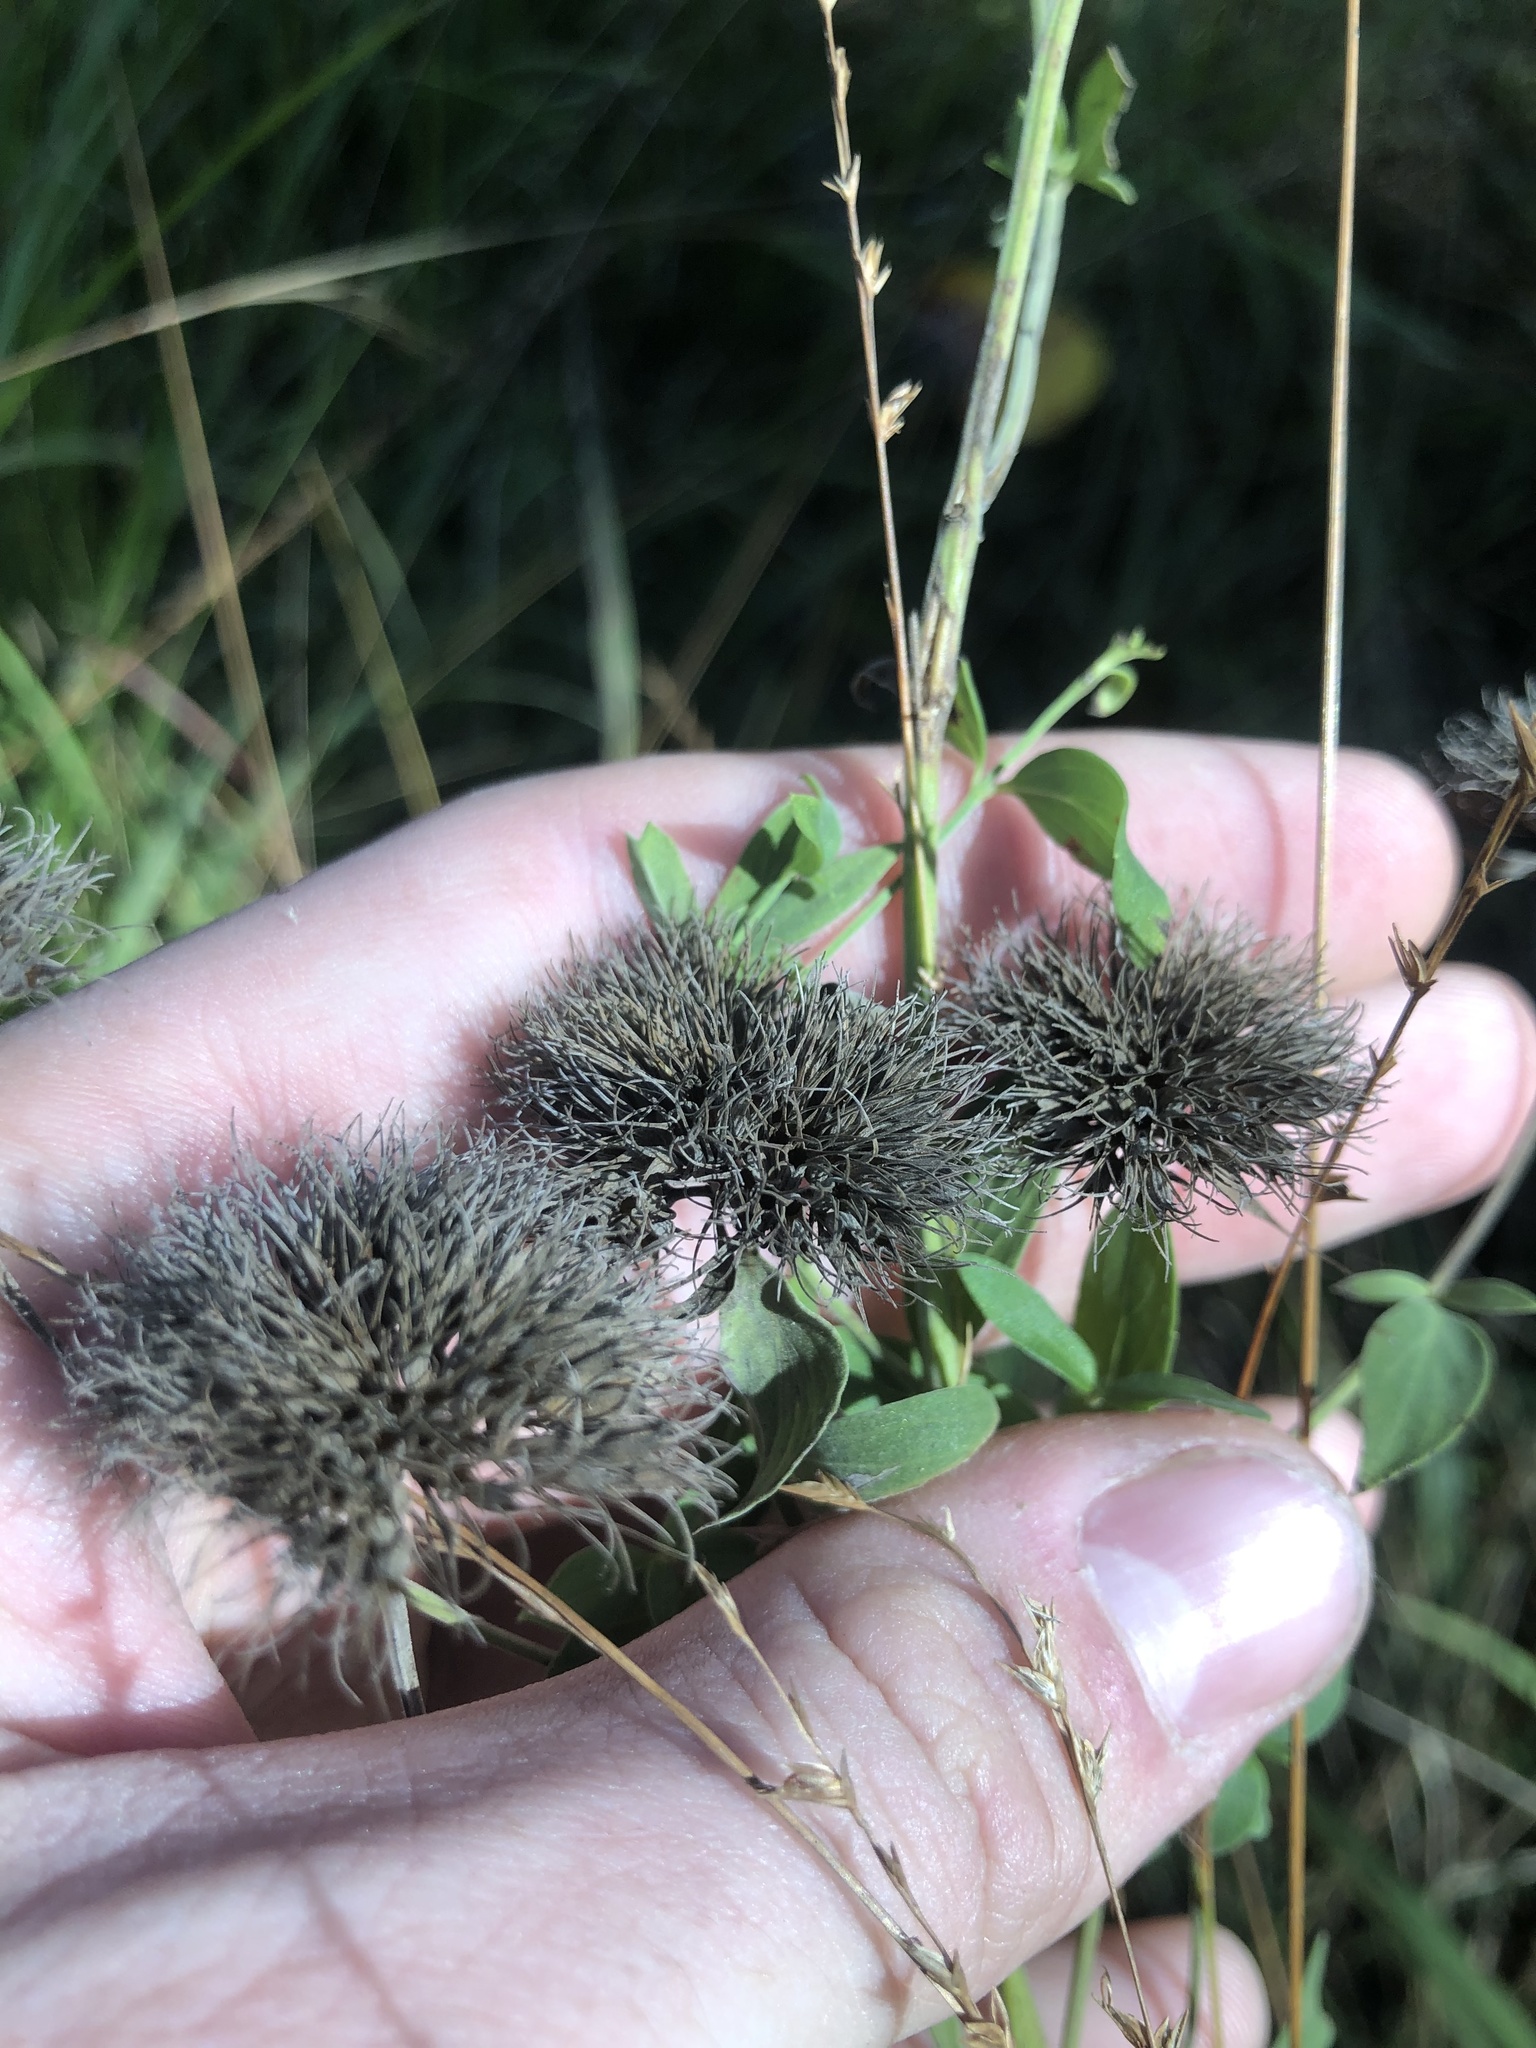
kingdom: Plantae
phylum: Tracheophyta
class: Magnoliopsida
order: Lamiales
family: Lamiaceae
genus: Pycnanthemum
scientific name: Pycnanthemum flexuosum
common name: Appalachian mountain-mint
